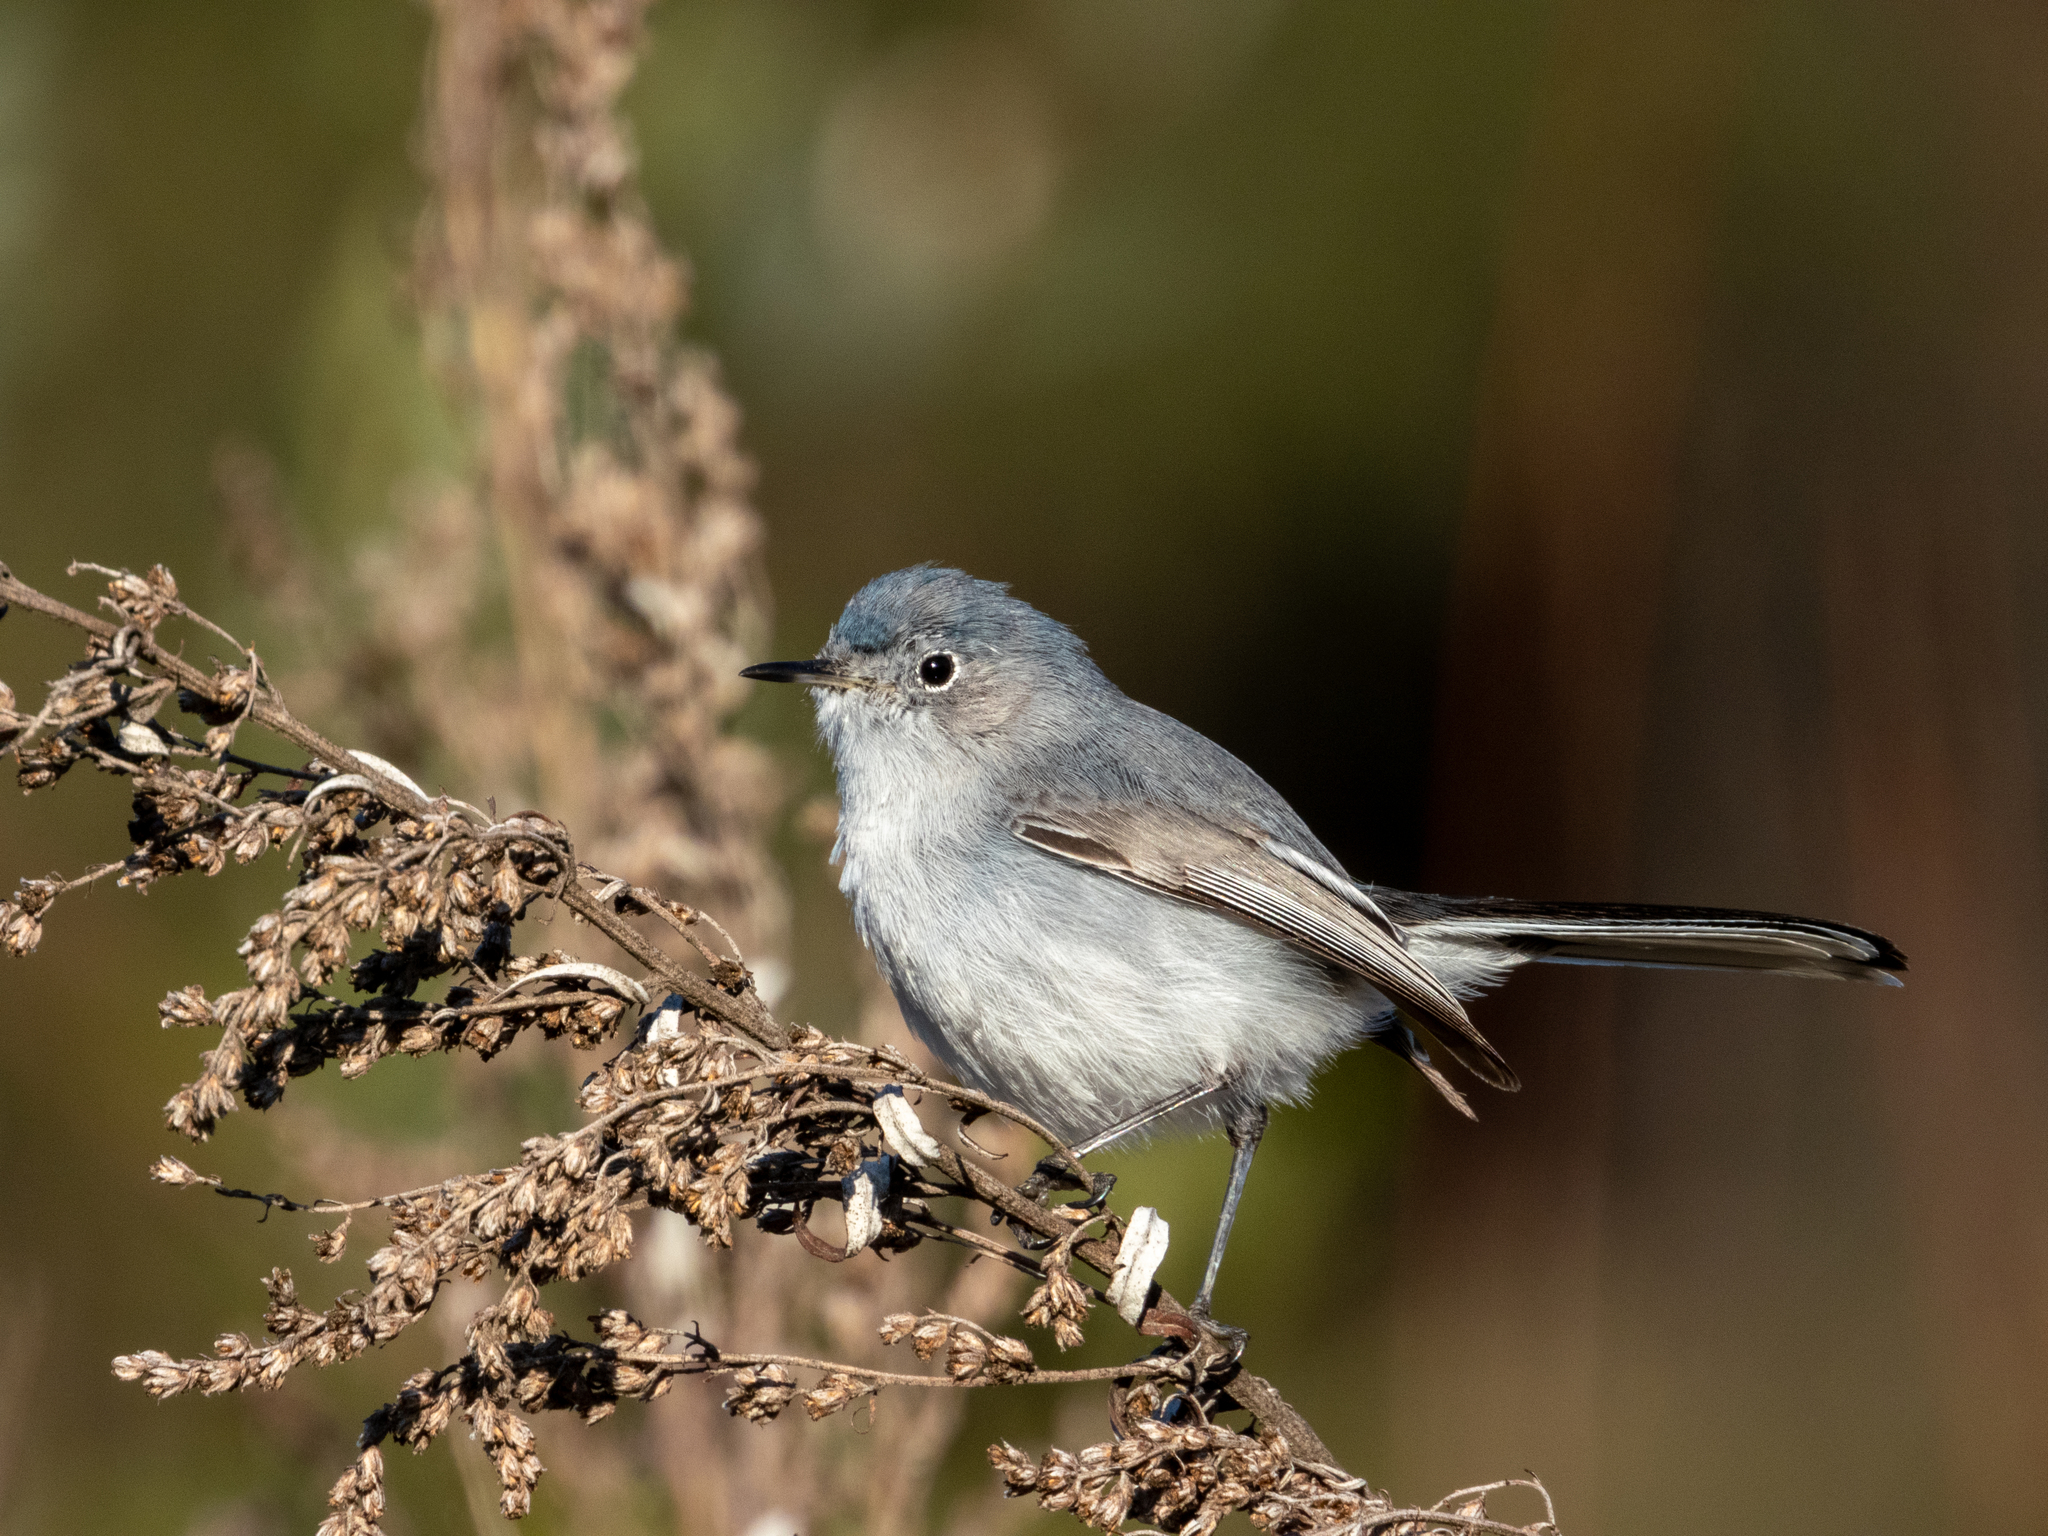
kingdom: Animalia
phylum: Chordata
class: Aves
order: Passeriformes
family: Polioptilidae
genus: Polioptila
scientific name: Polioptila caerulea
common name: Blue-gray gnatcatcher
